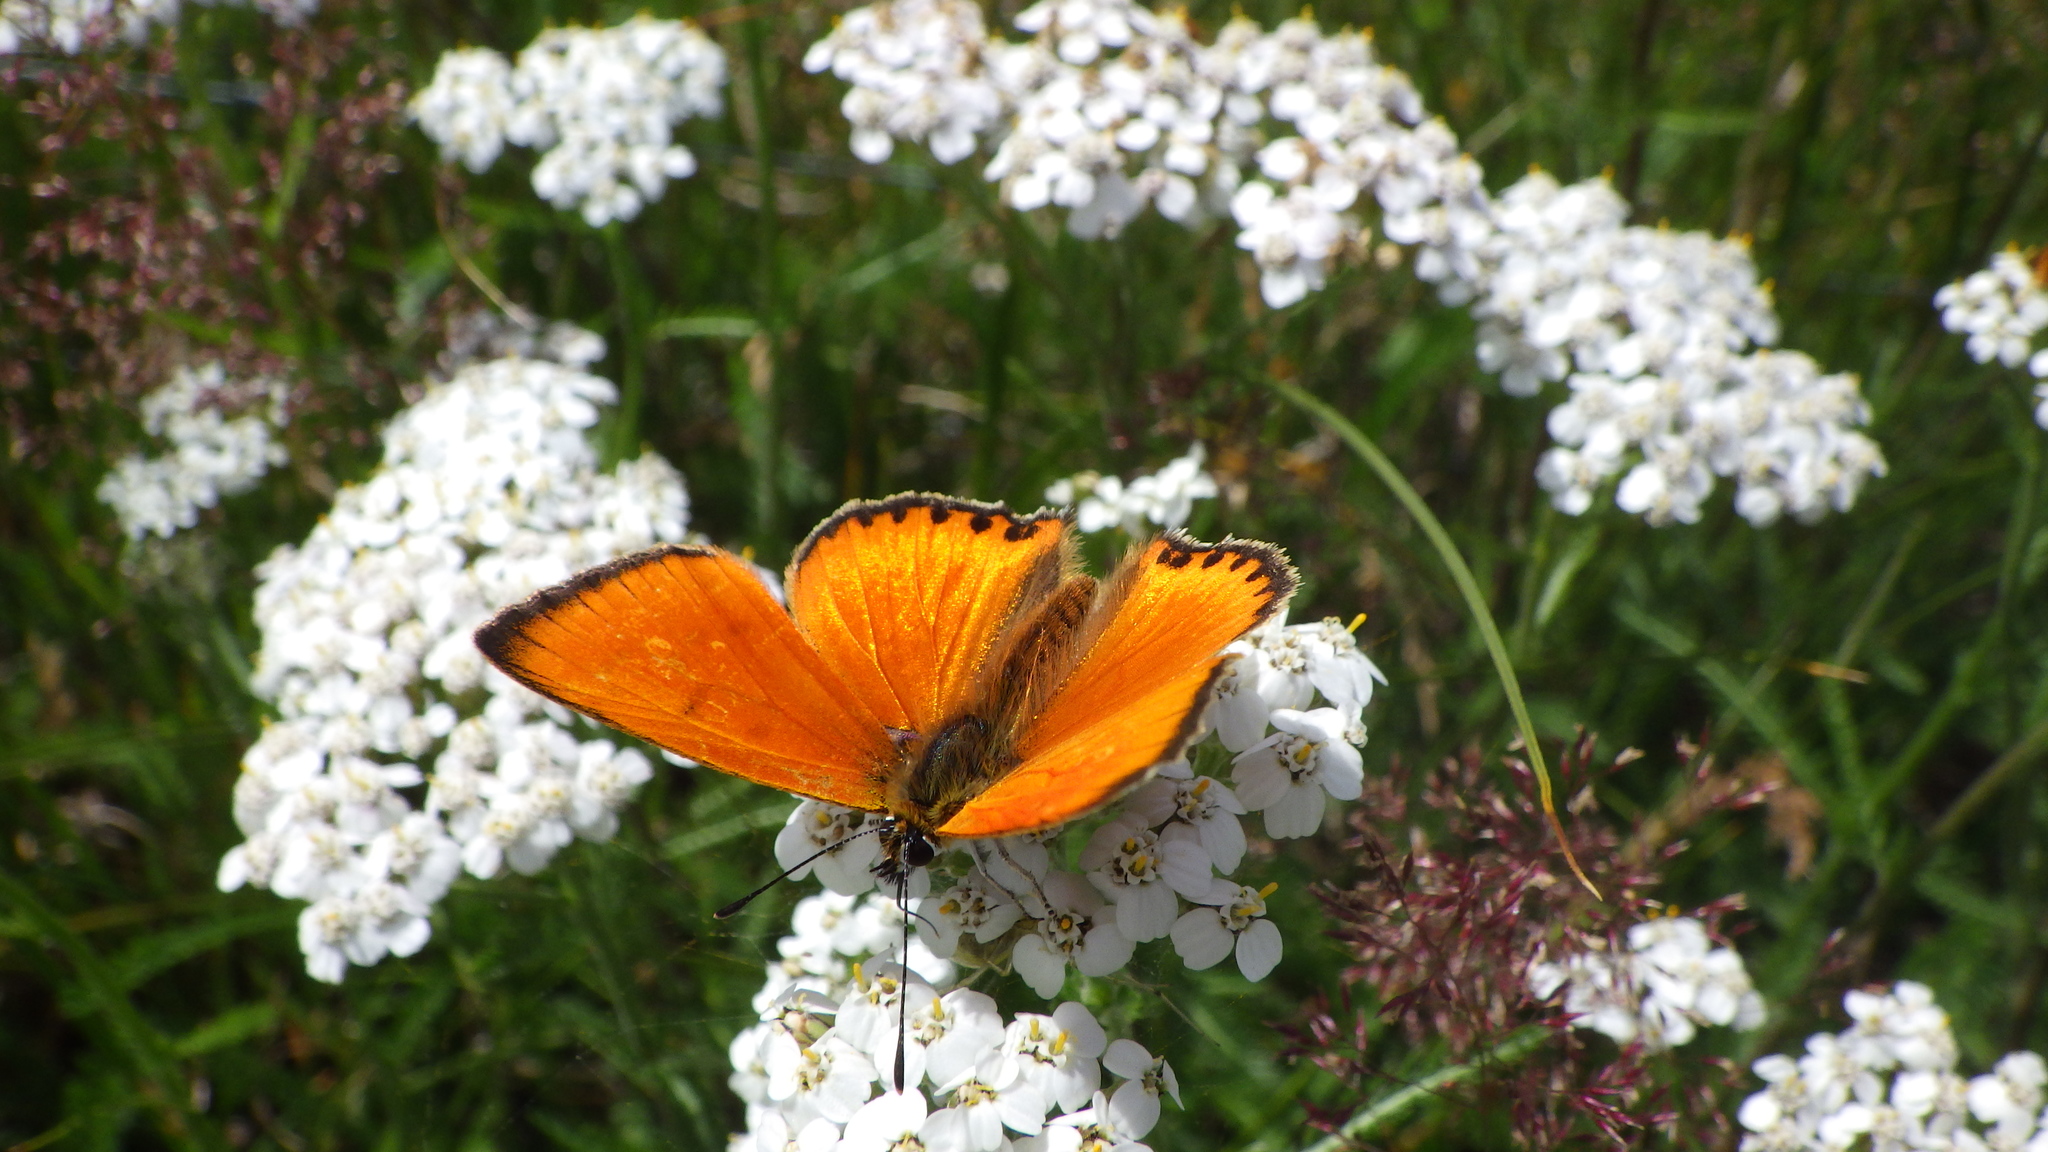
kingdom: Animalia
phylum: Arthropoda
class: Insecta
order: Lepidoptera
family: Lycaenidae
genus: Lycaena
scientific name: Lycaena virgaureae
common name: Scarce copper
